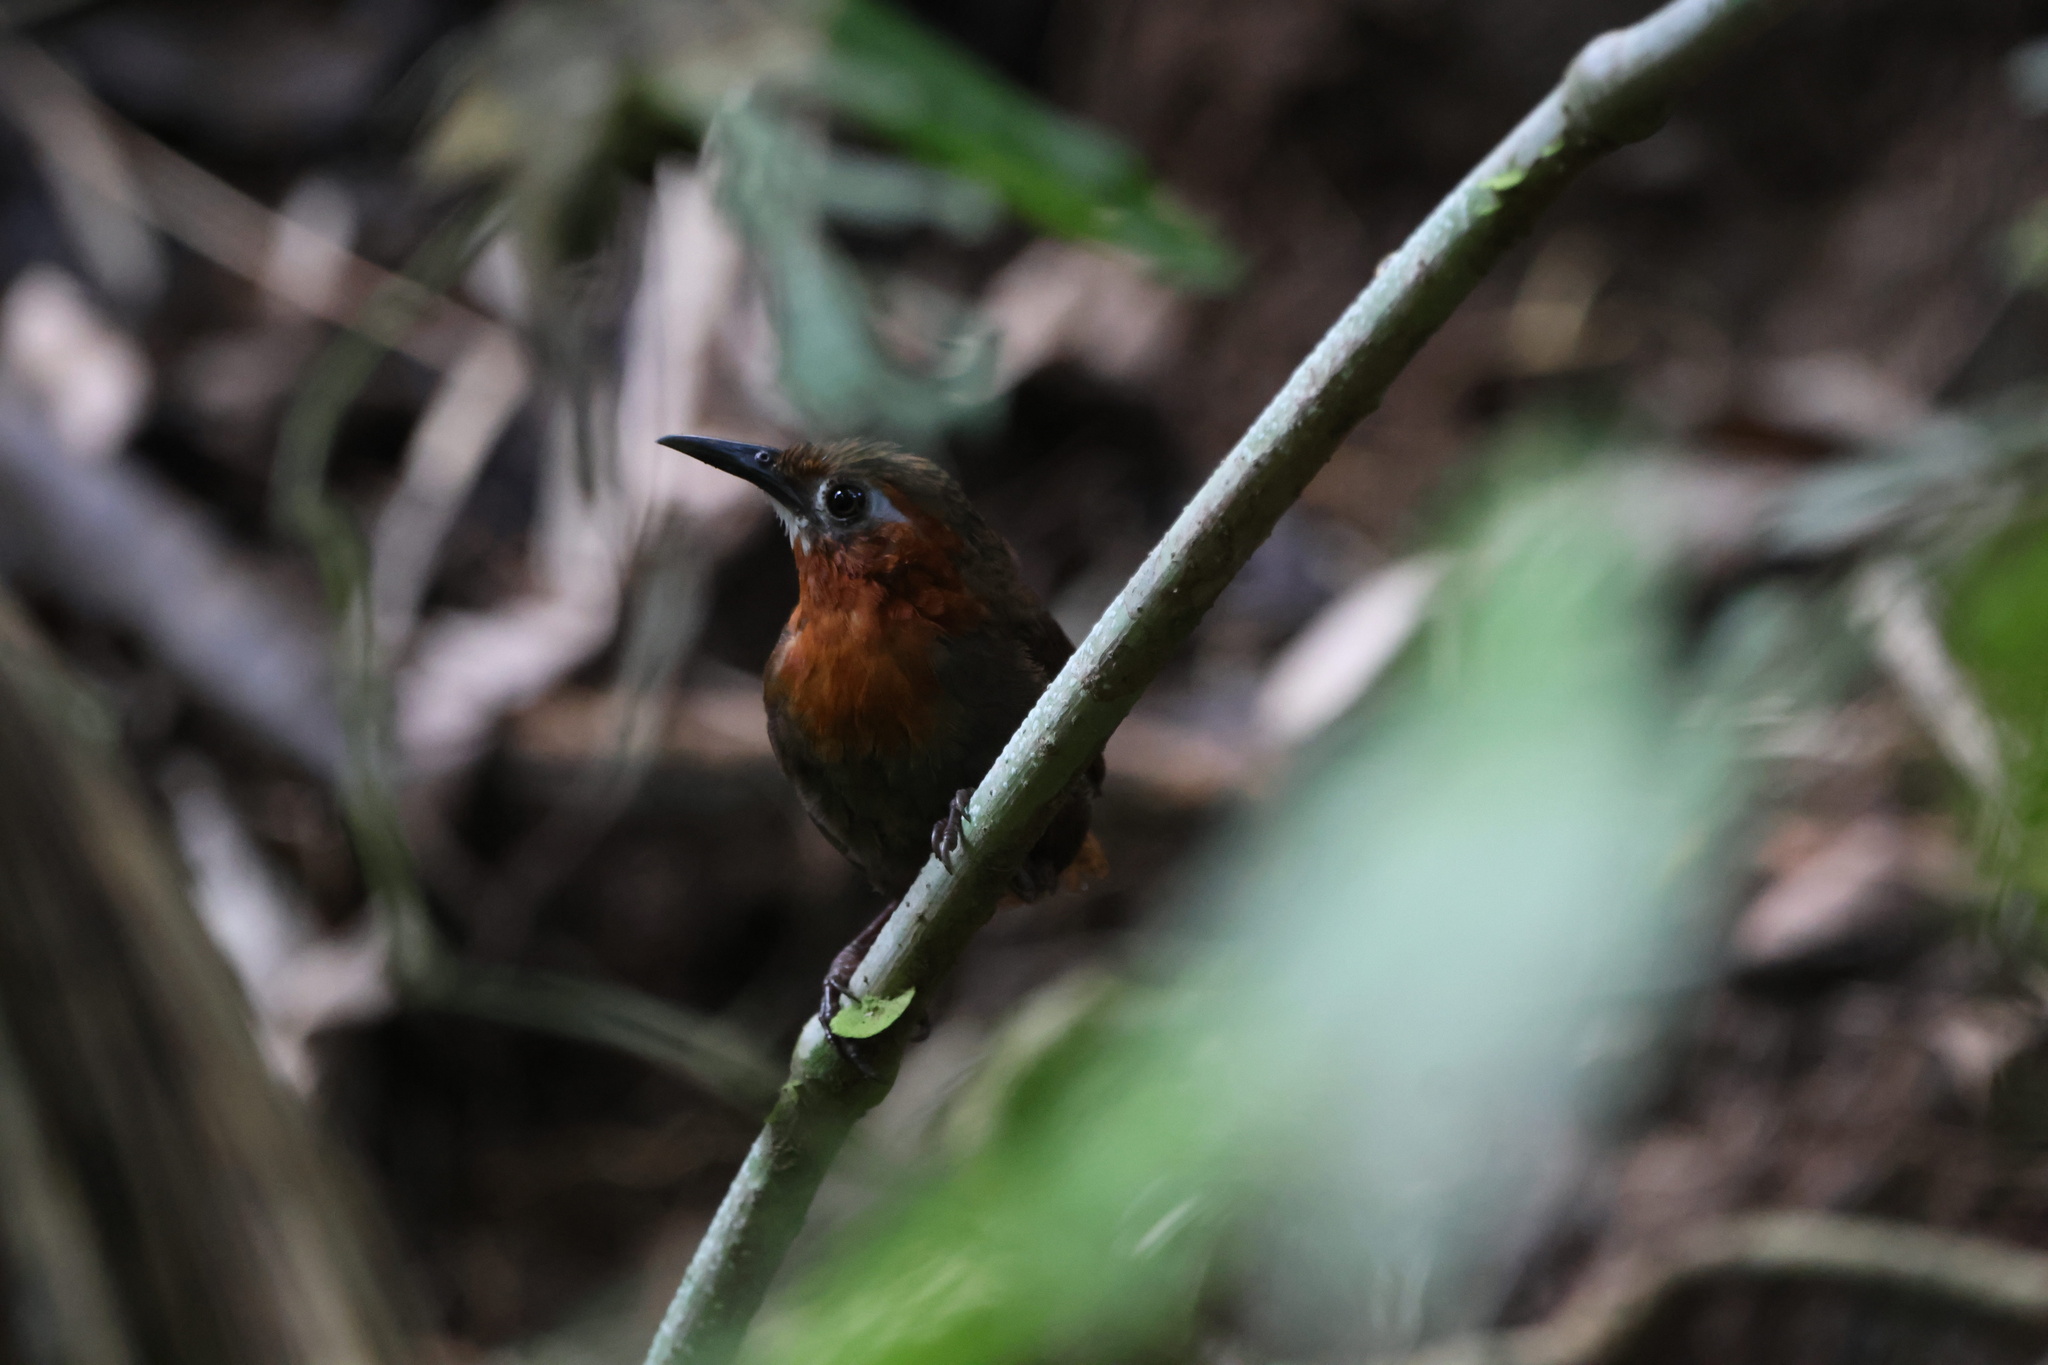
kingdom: Animalia
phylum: Chordata
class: Aves
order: Passeriformes
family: Troglodytidae
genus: Cyphorhinus
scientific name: Cyphorhinus phaeocephalus
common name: Song wren
